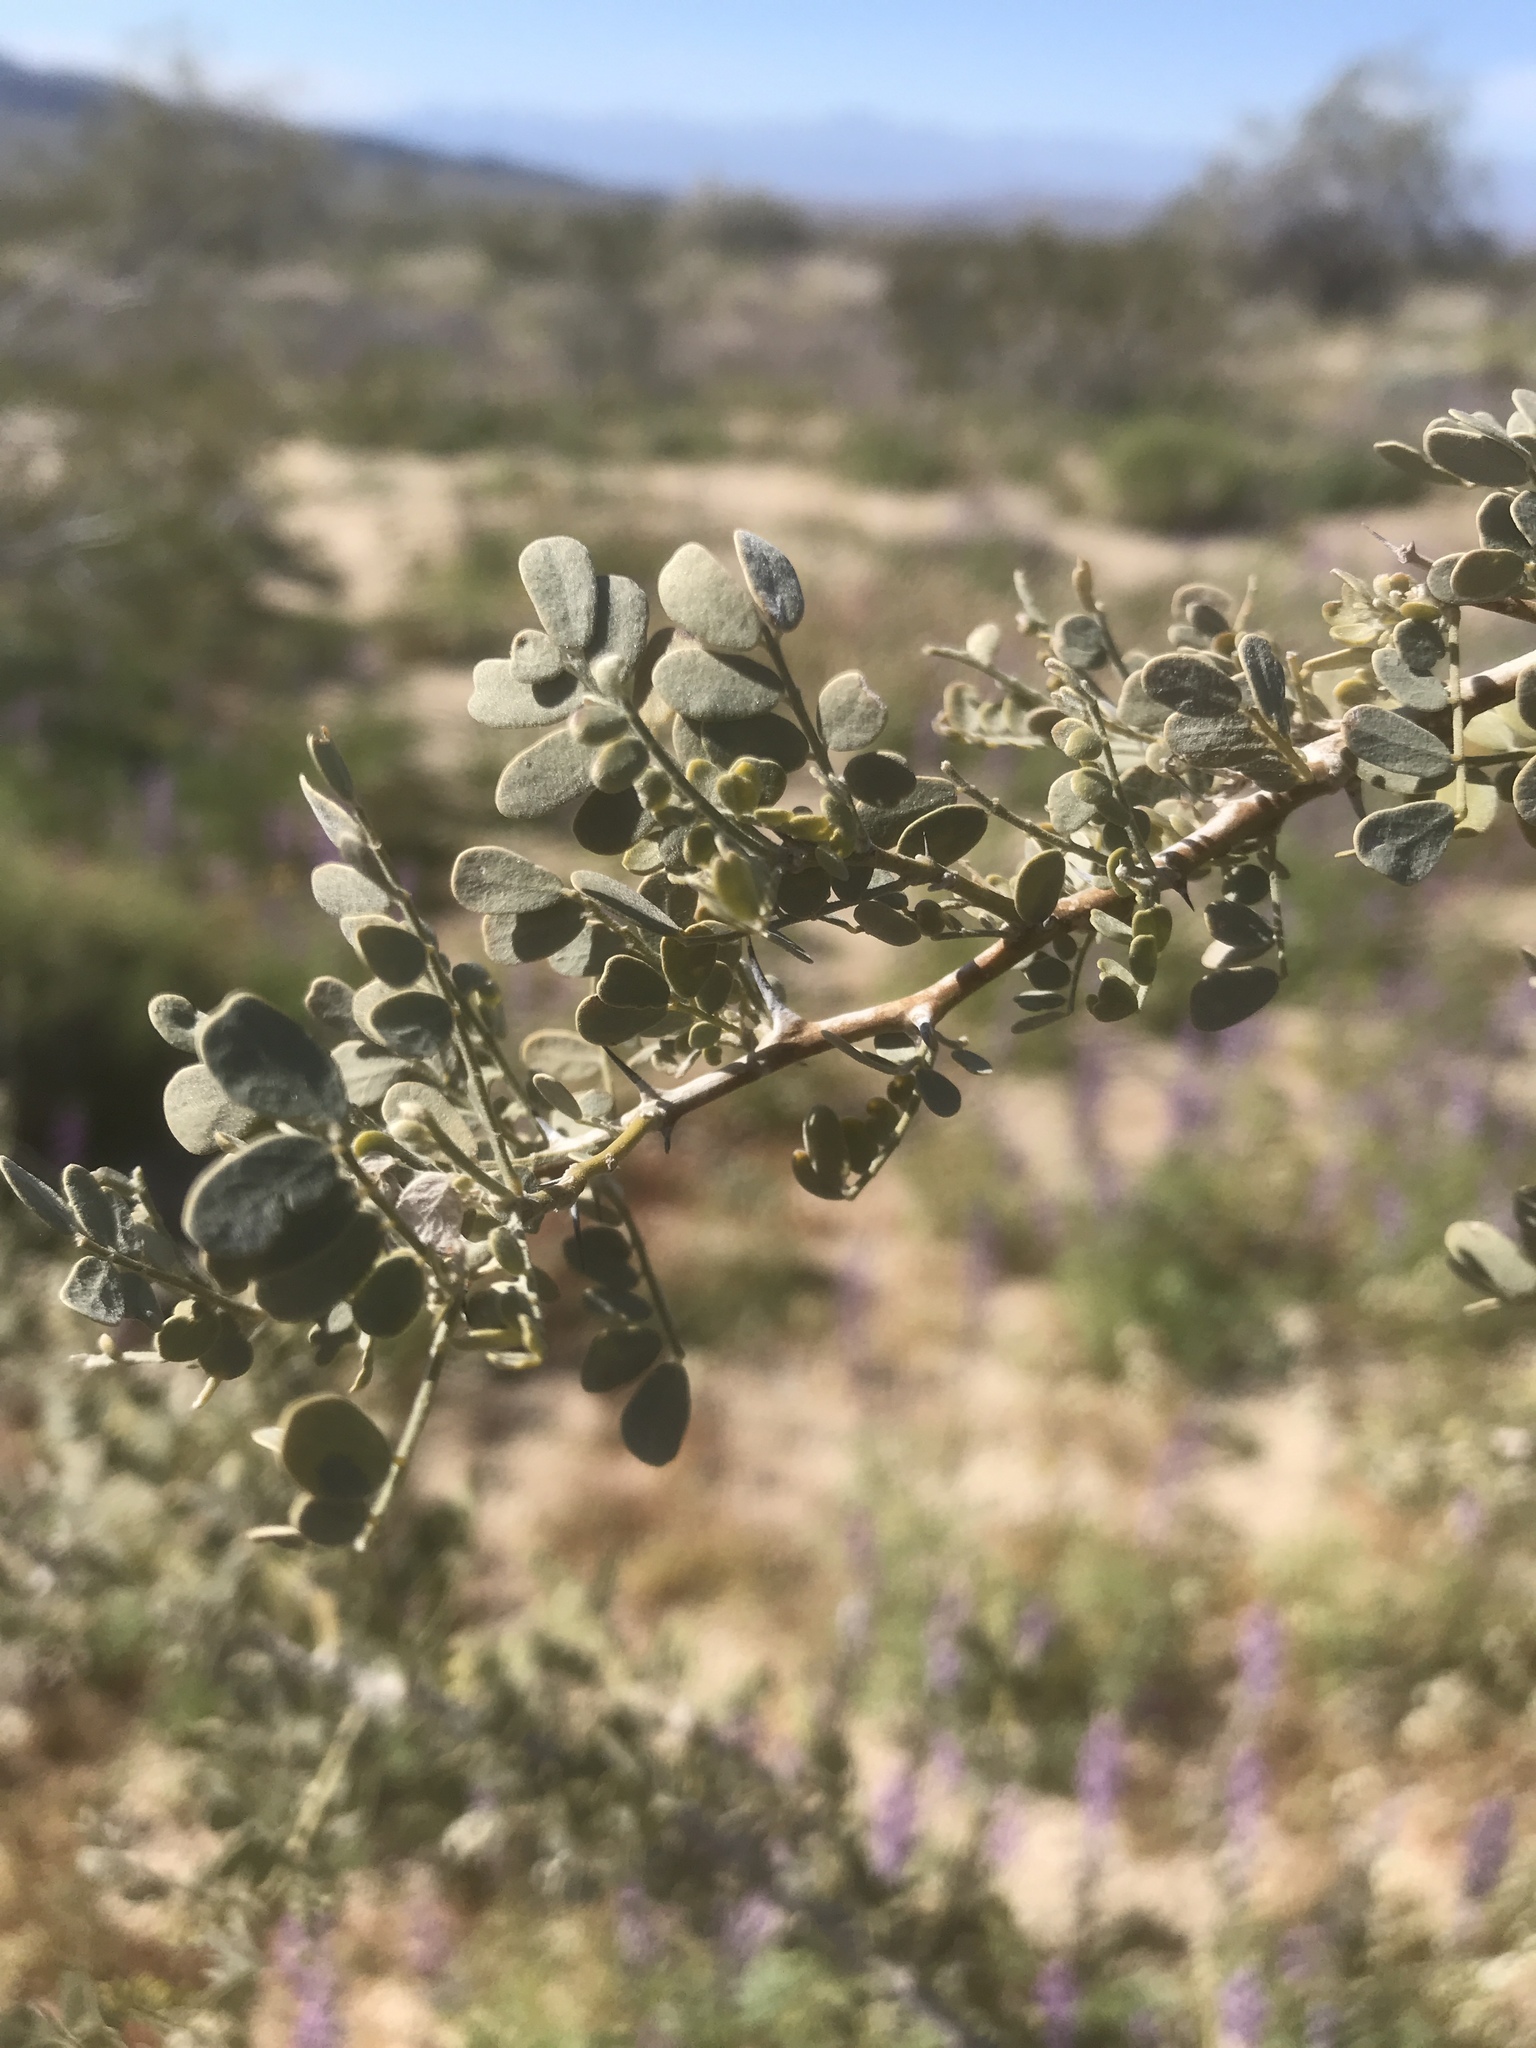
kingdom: Plantae
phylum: Tracheophyta
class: Magnoliopsida
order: Fabales
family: Fabaceae
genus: Olneya
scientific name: Olneya tesota
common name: Desert ironwood
